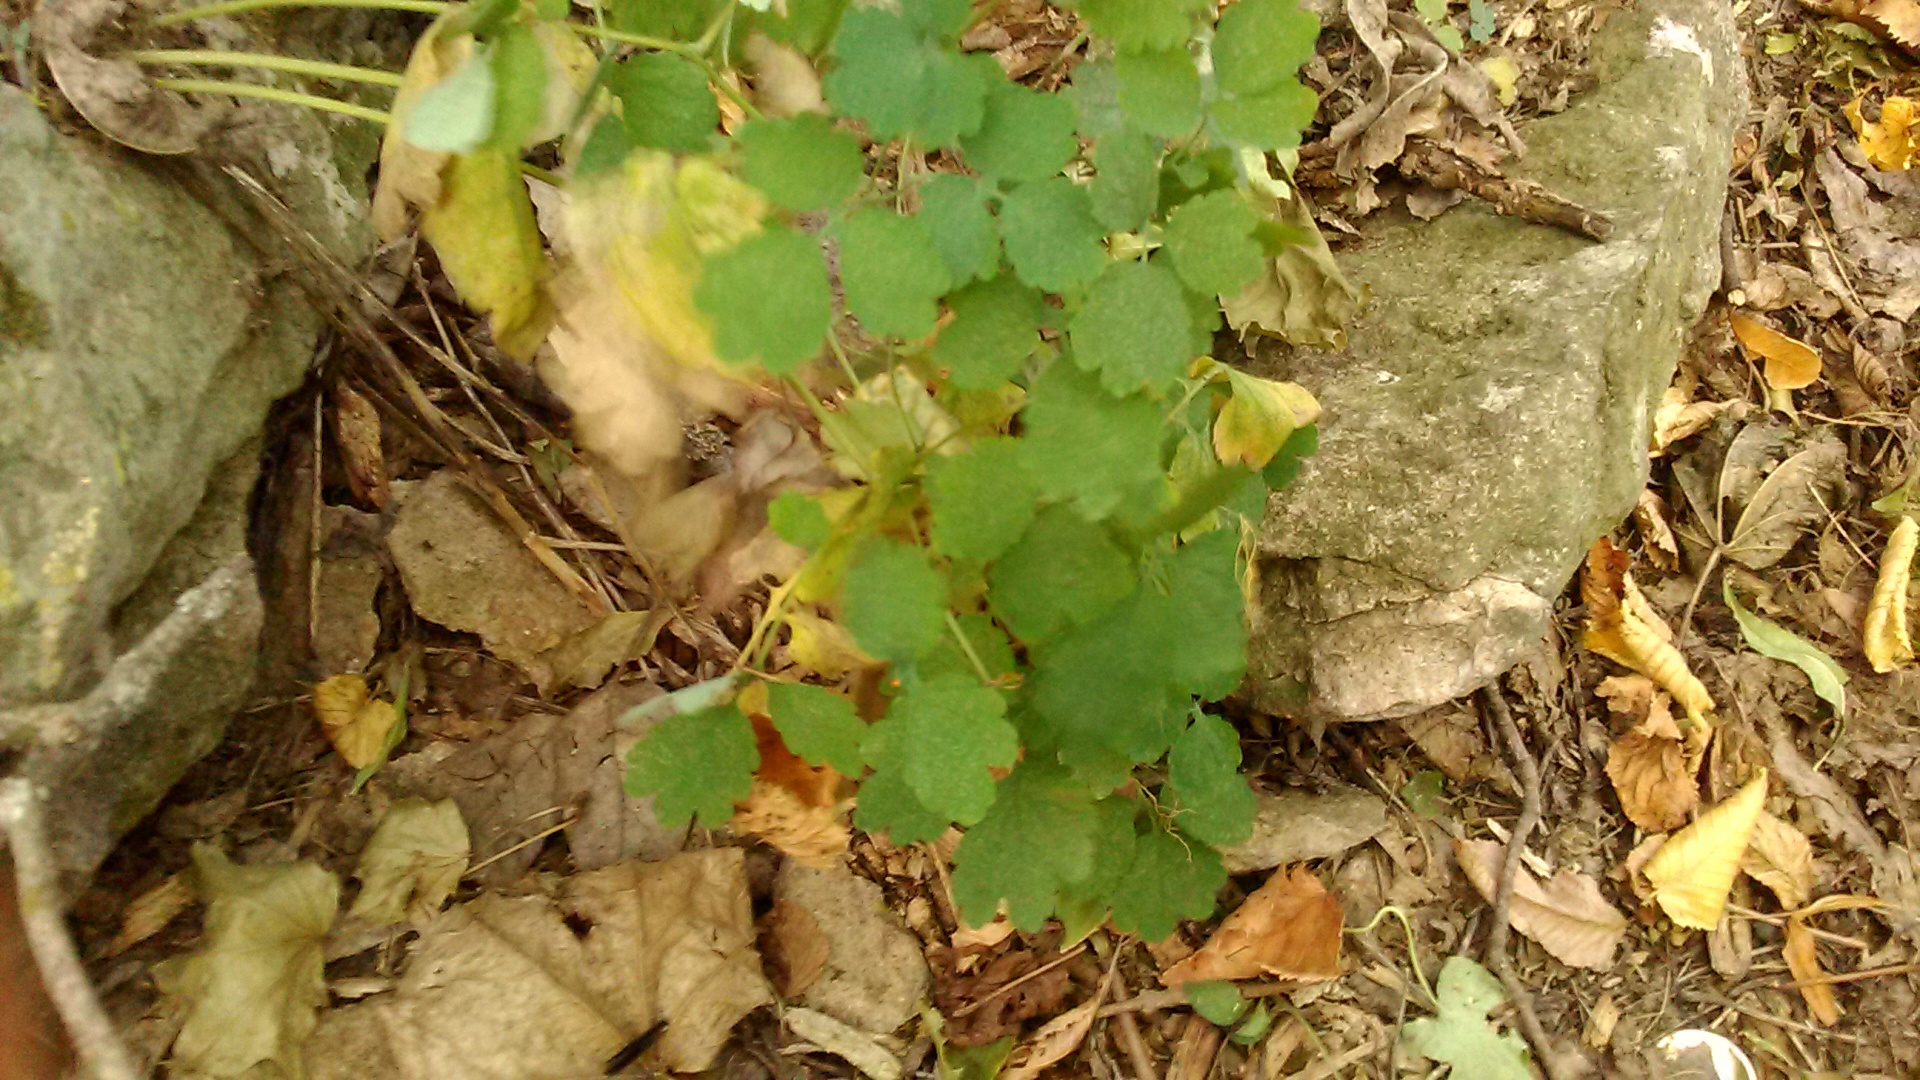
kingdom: Plantae
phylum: Tracheophyta
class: Magnoliopsida
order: Ranunculales
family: Papaveraceae
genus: Chelidonium
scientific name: Chelidonium majus
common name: Greater celandine
